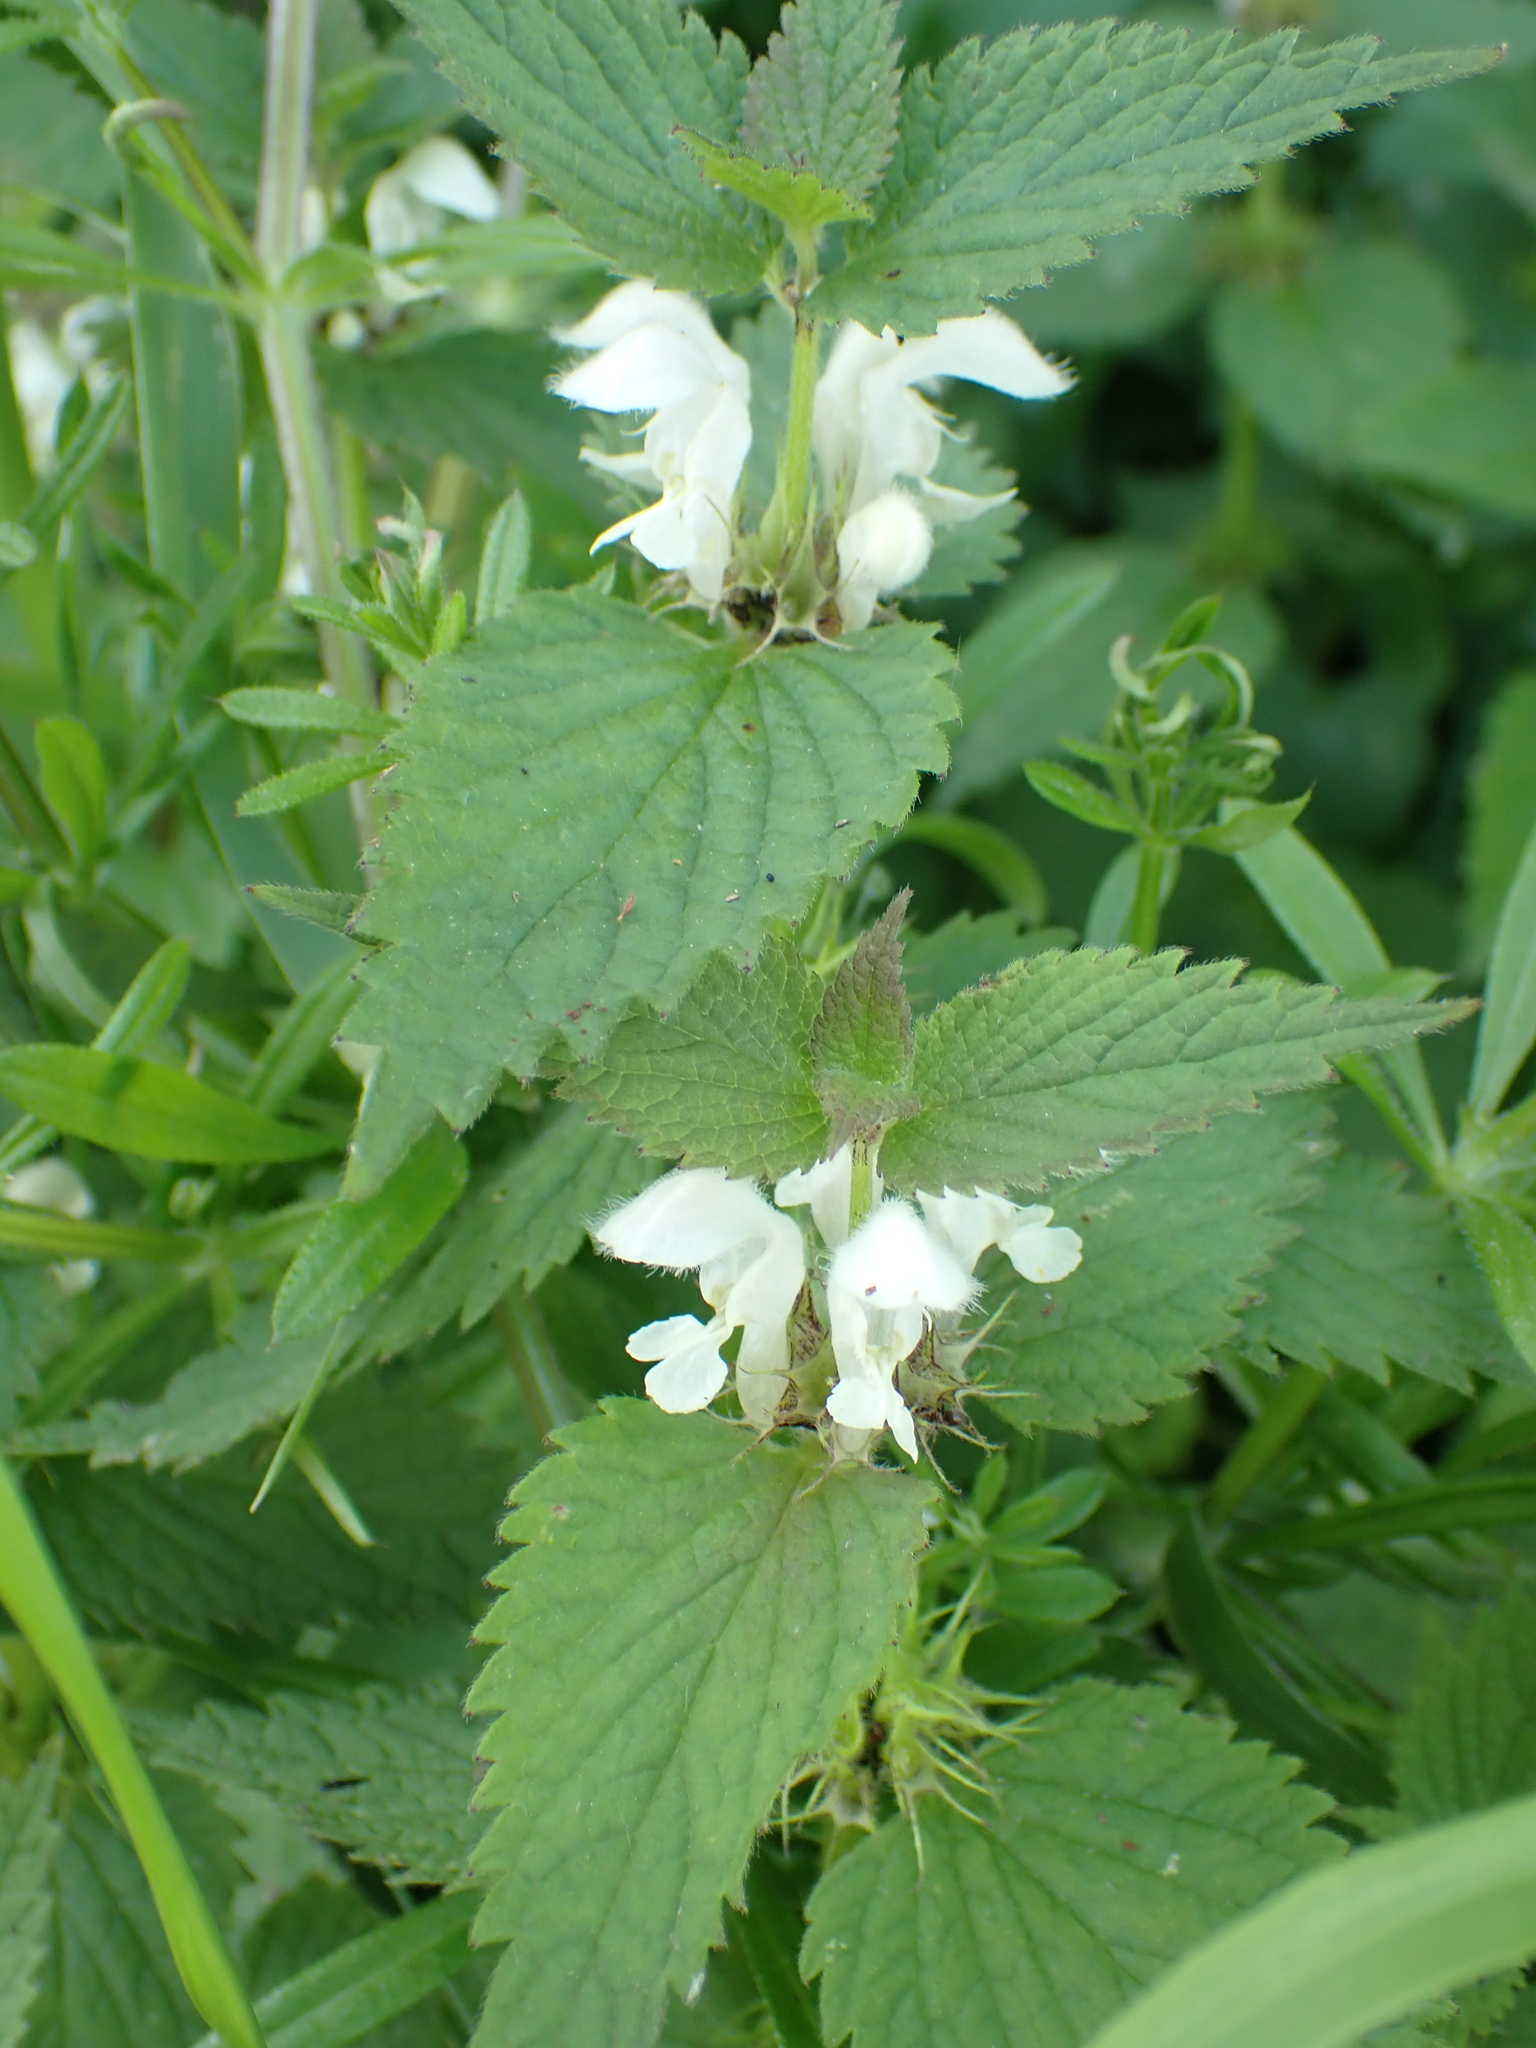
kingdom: Plantae
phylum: Tracheophyta
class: Magnoliopsida
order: Lamiales
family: Lamiaceae
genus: Lamium
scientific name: Lamium album
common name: White dead-nettle
